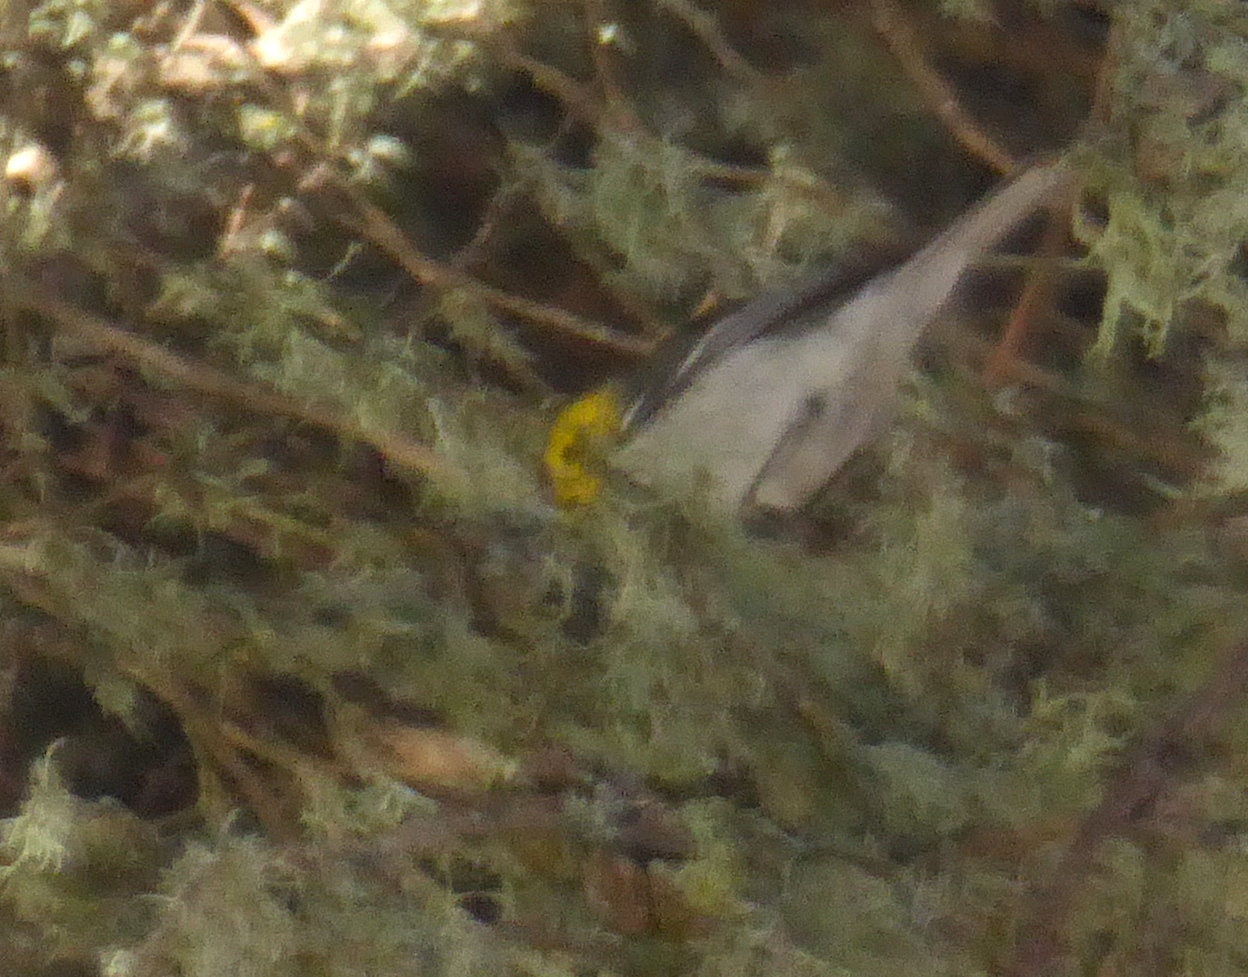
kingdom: Animalia
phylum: Chordata
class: Aves
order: Passeriformes
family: Parulidae
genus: Setophaga
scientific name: Setophaga occidentalis
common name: Hermit warbler
